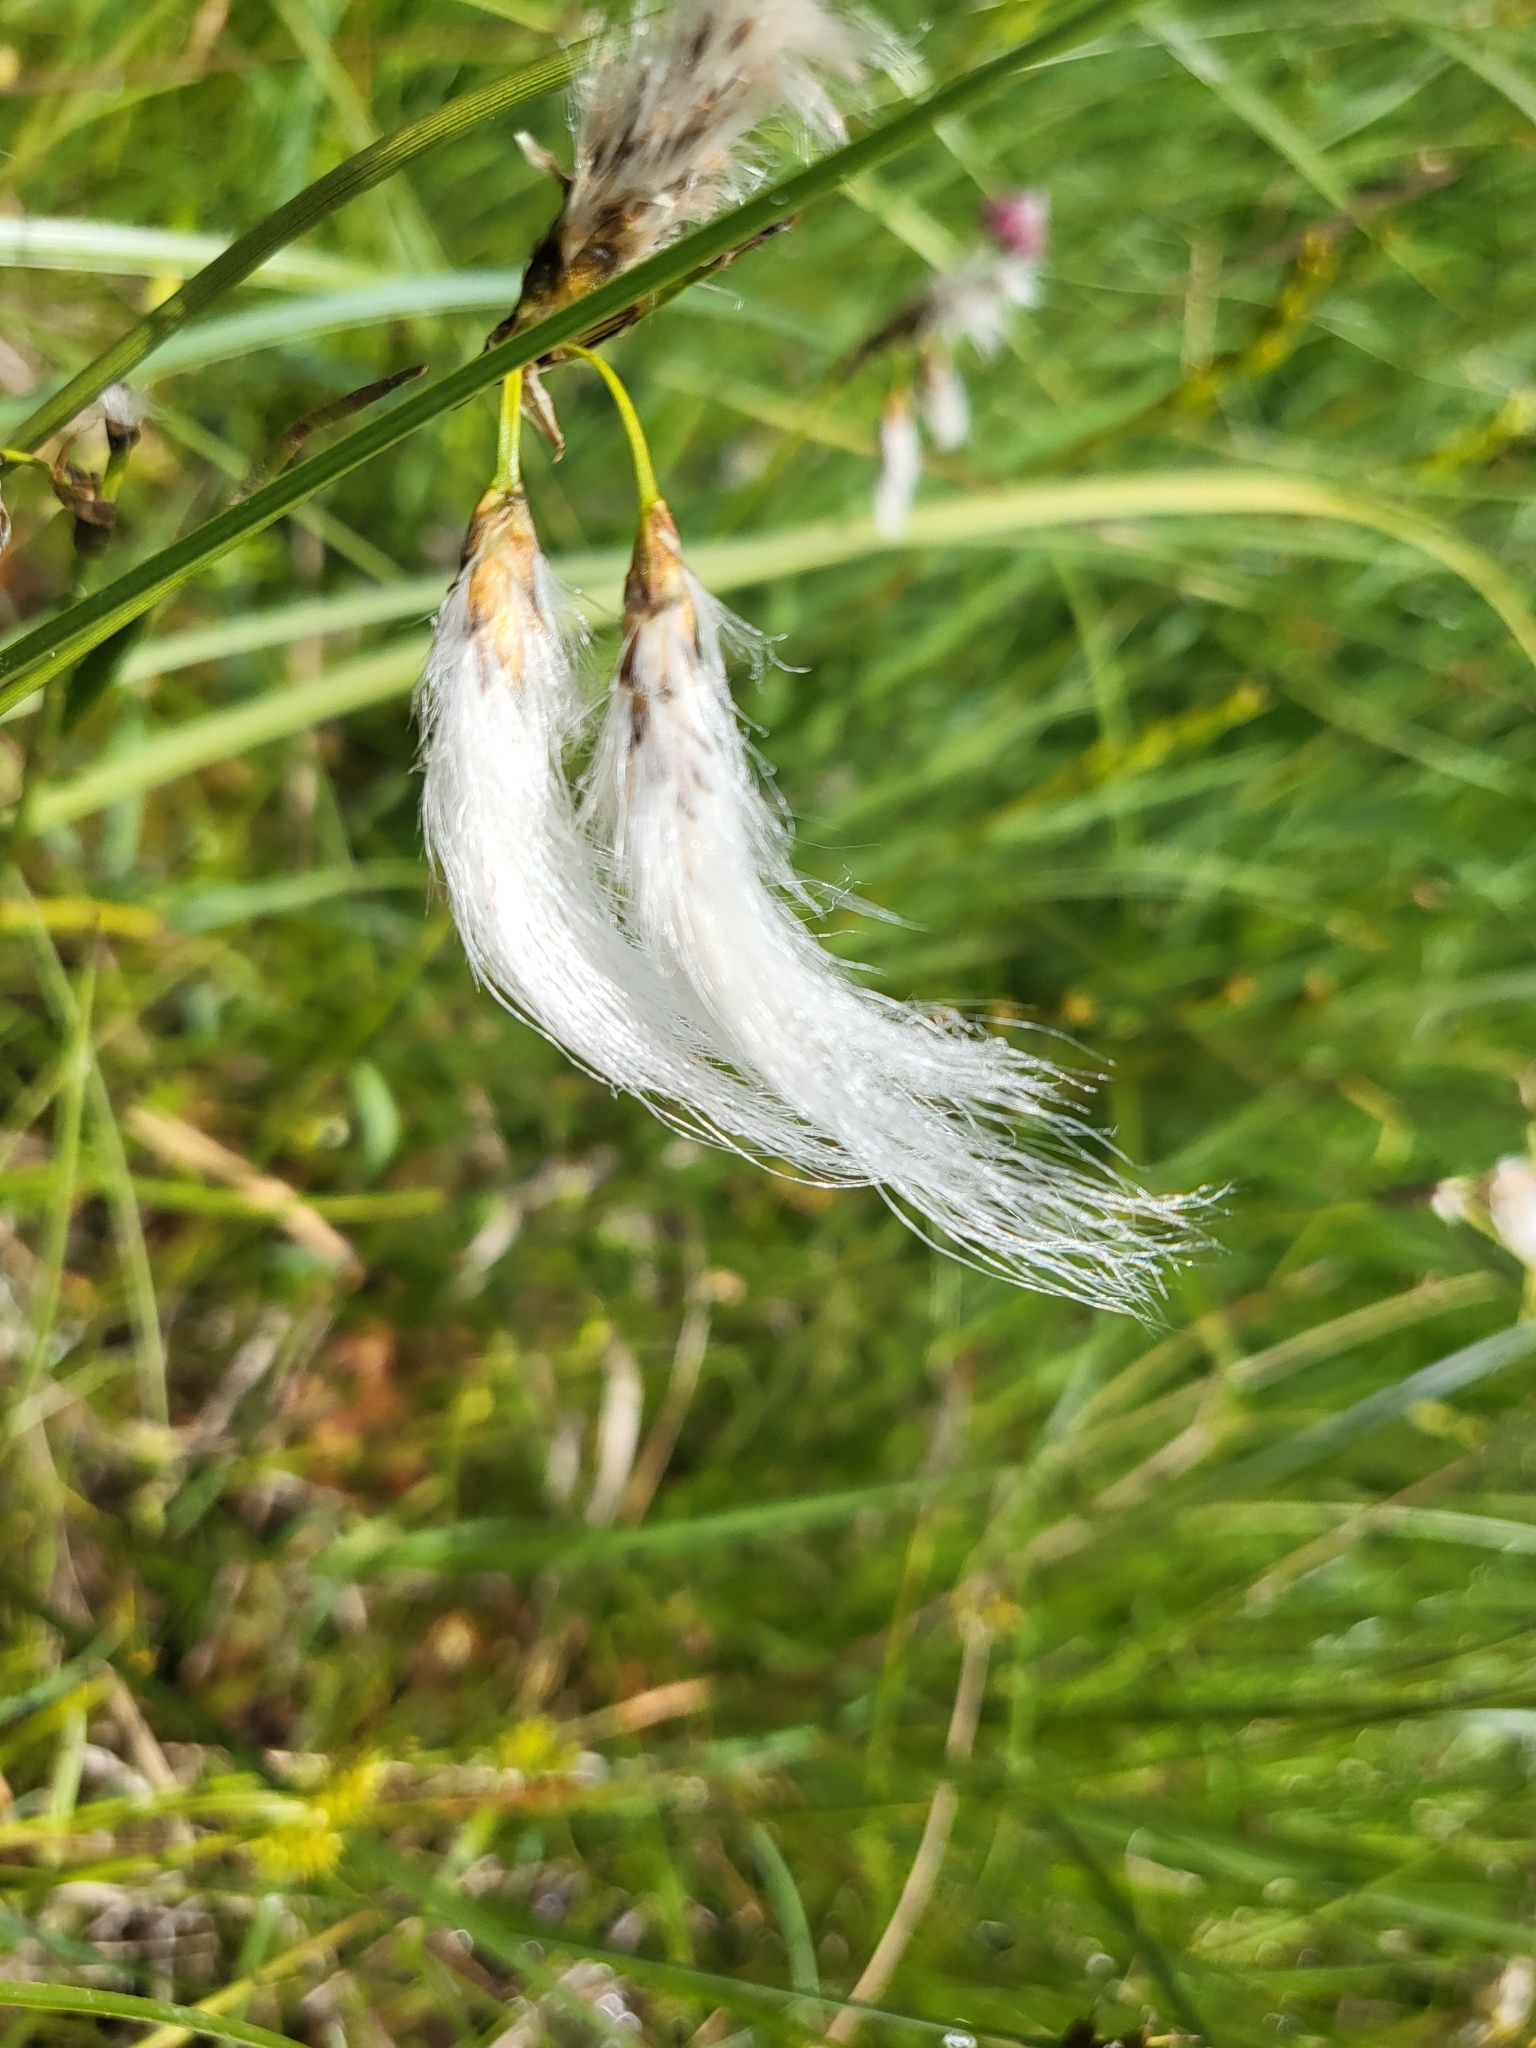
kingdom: Plantae
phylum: Tracheophyta
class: Liliopsida
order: Poales
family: Cyperaceae
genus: Eriophorum
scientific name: Eriophorum angustifolium
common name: Common cottongrass
